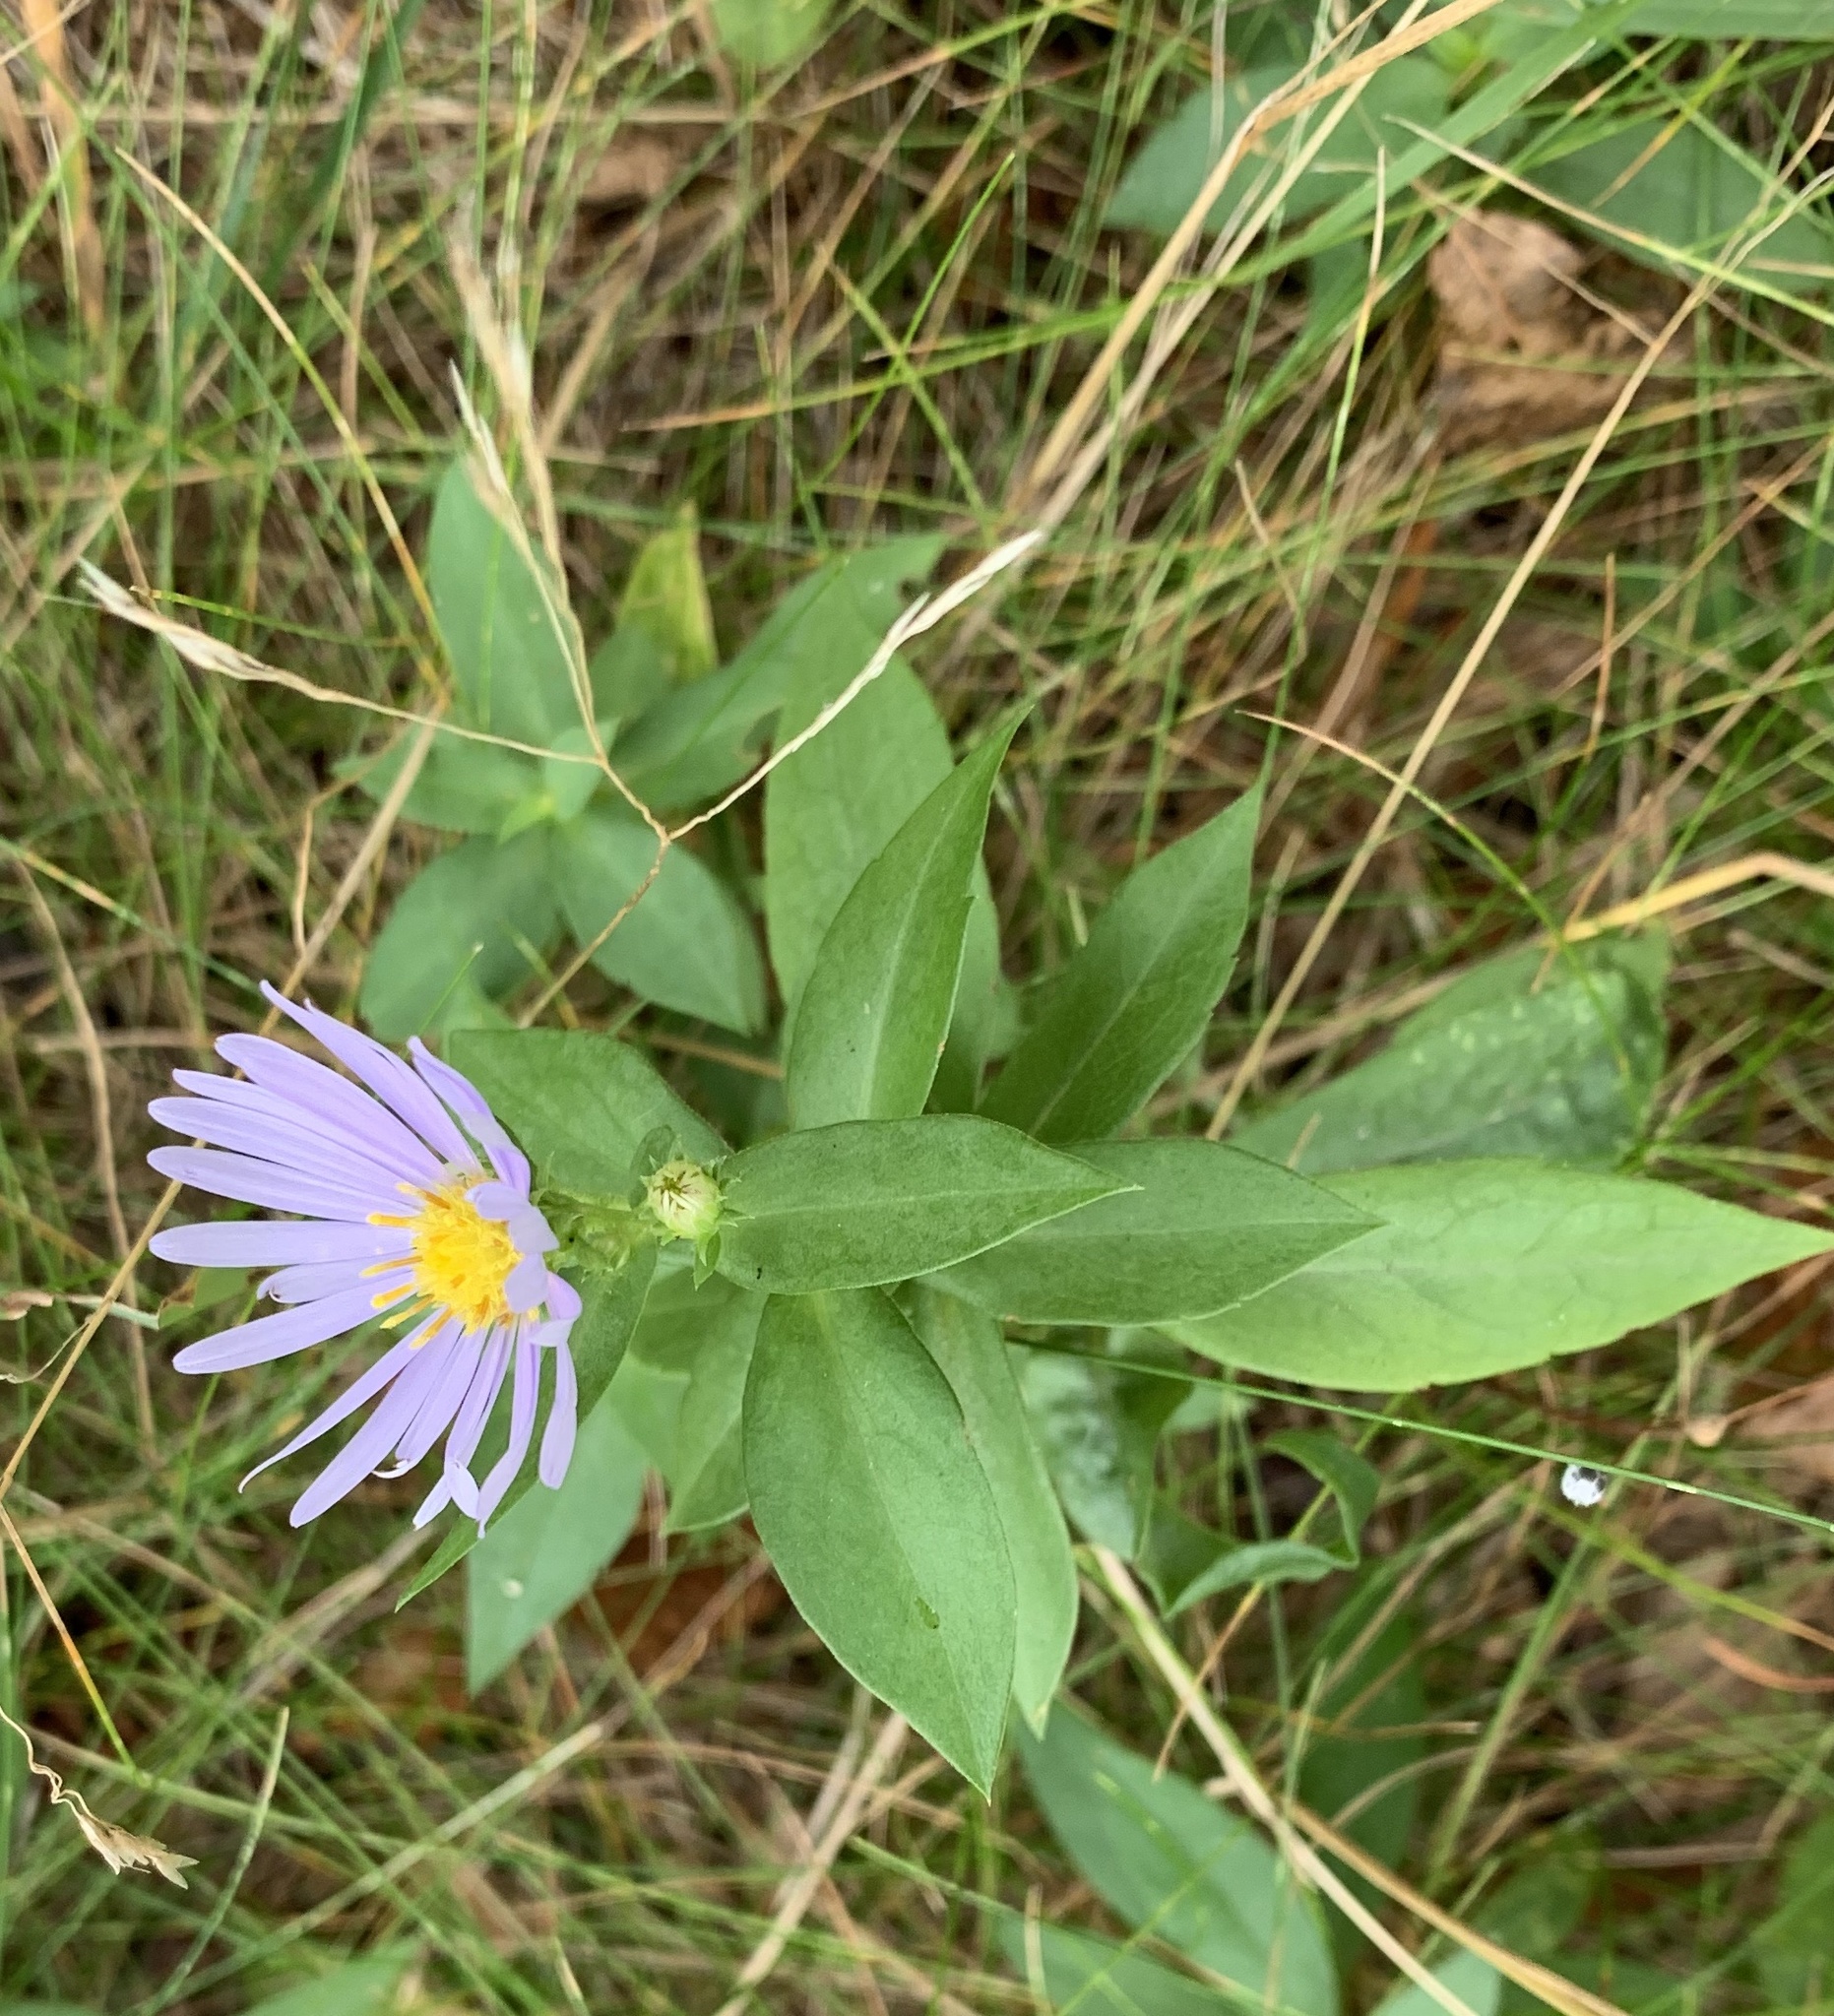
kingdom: Plantae
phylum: Tracheophyta
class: Magnoliopsida
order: Asterales
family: Asteraceae
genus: Symphyotrichum
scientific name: Symphyotrichum novi-belgii
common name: Michaelmas daisy
